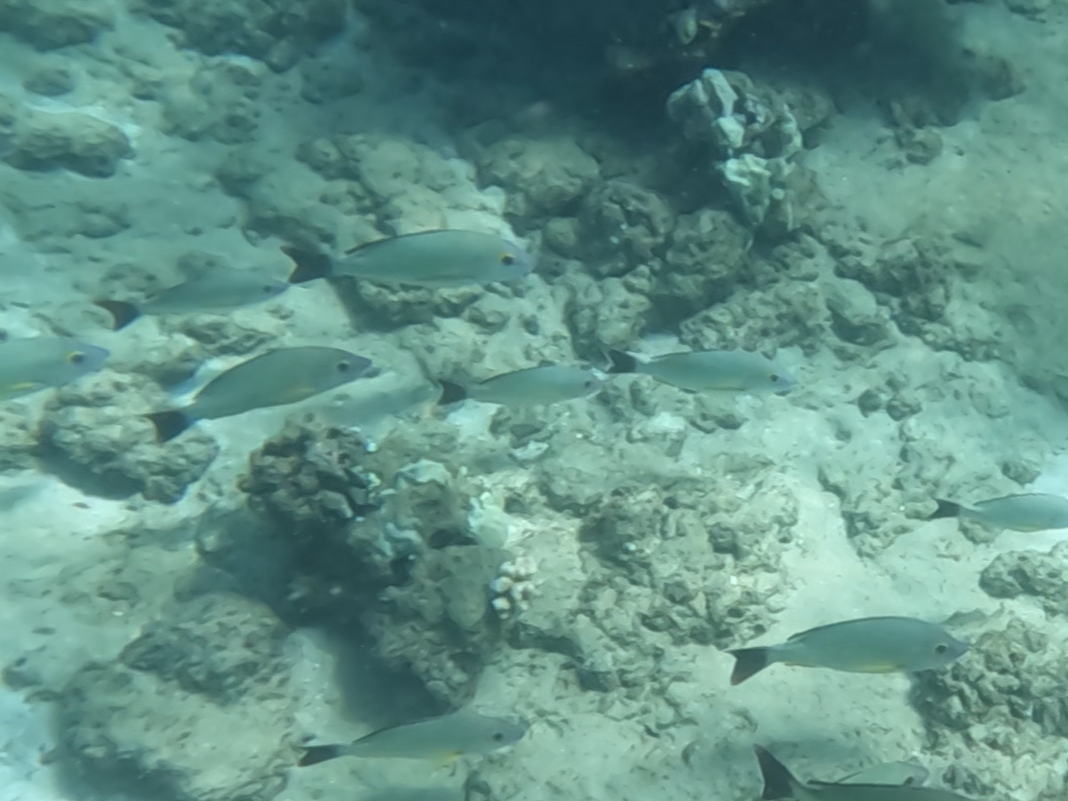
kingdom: Animalia
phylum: Chordata
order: Perciformes
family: Lutjanidae
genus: Lutjanus
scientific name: Lutjanus fulvus
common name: Blacktail snapper
